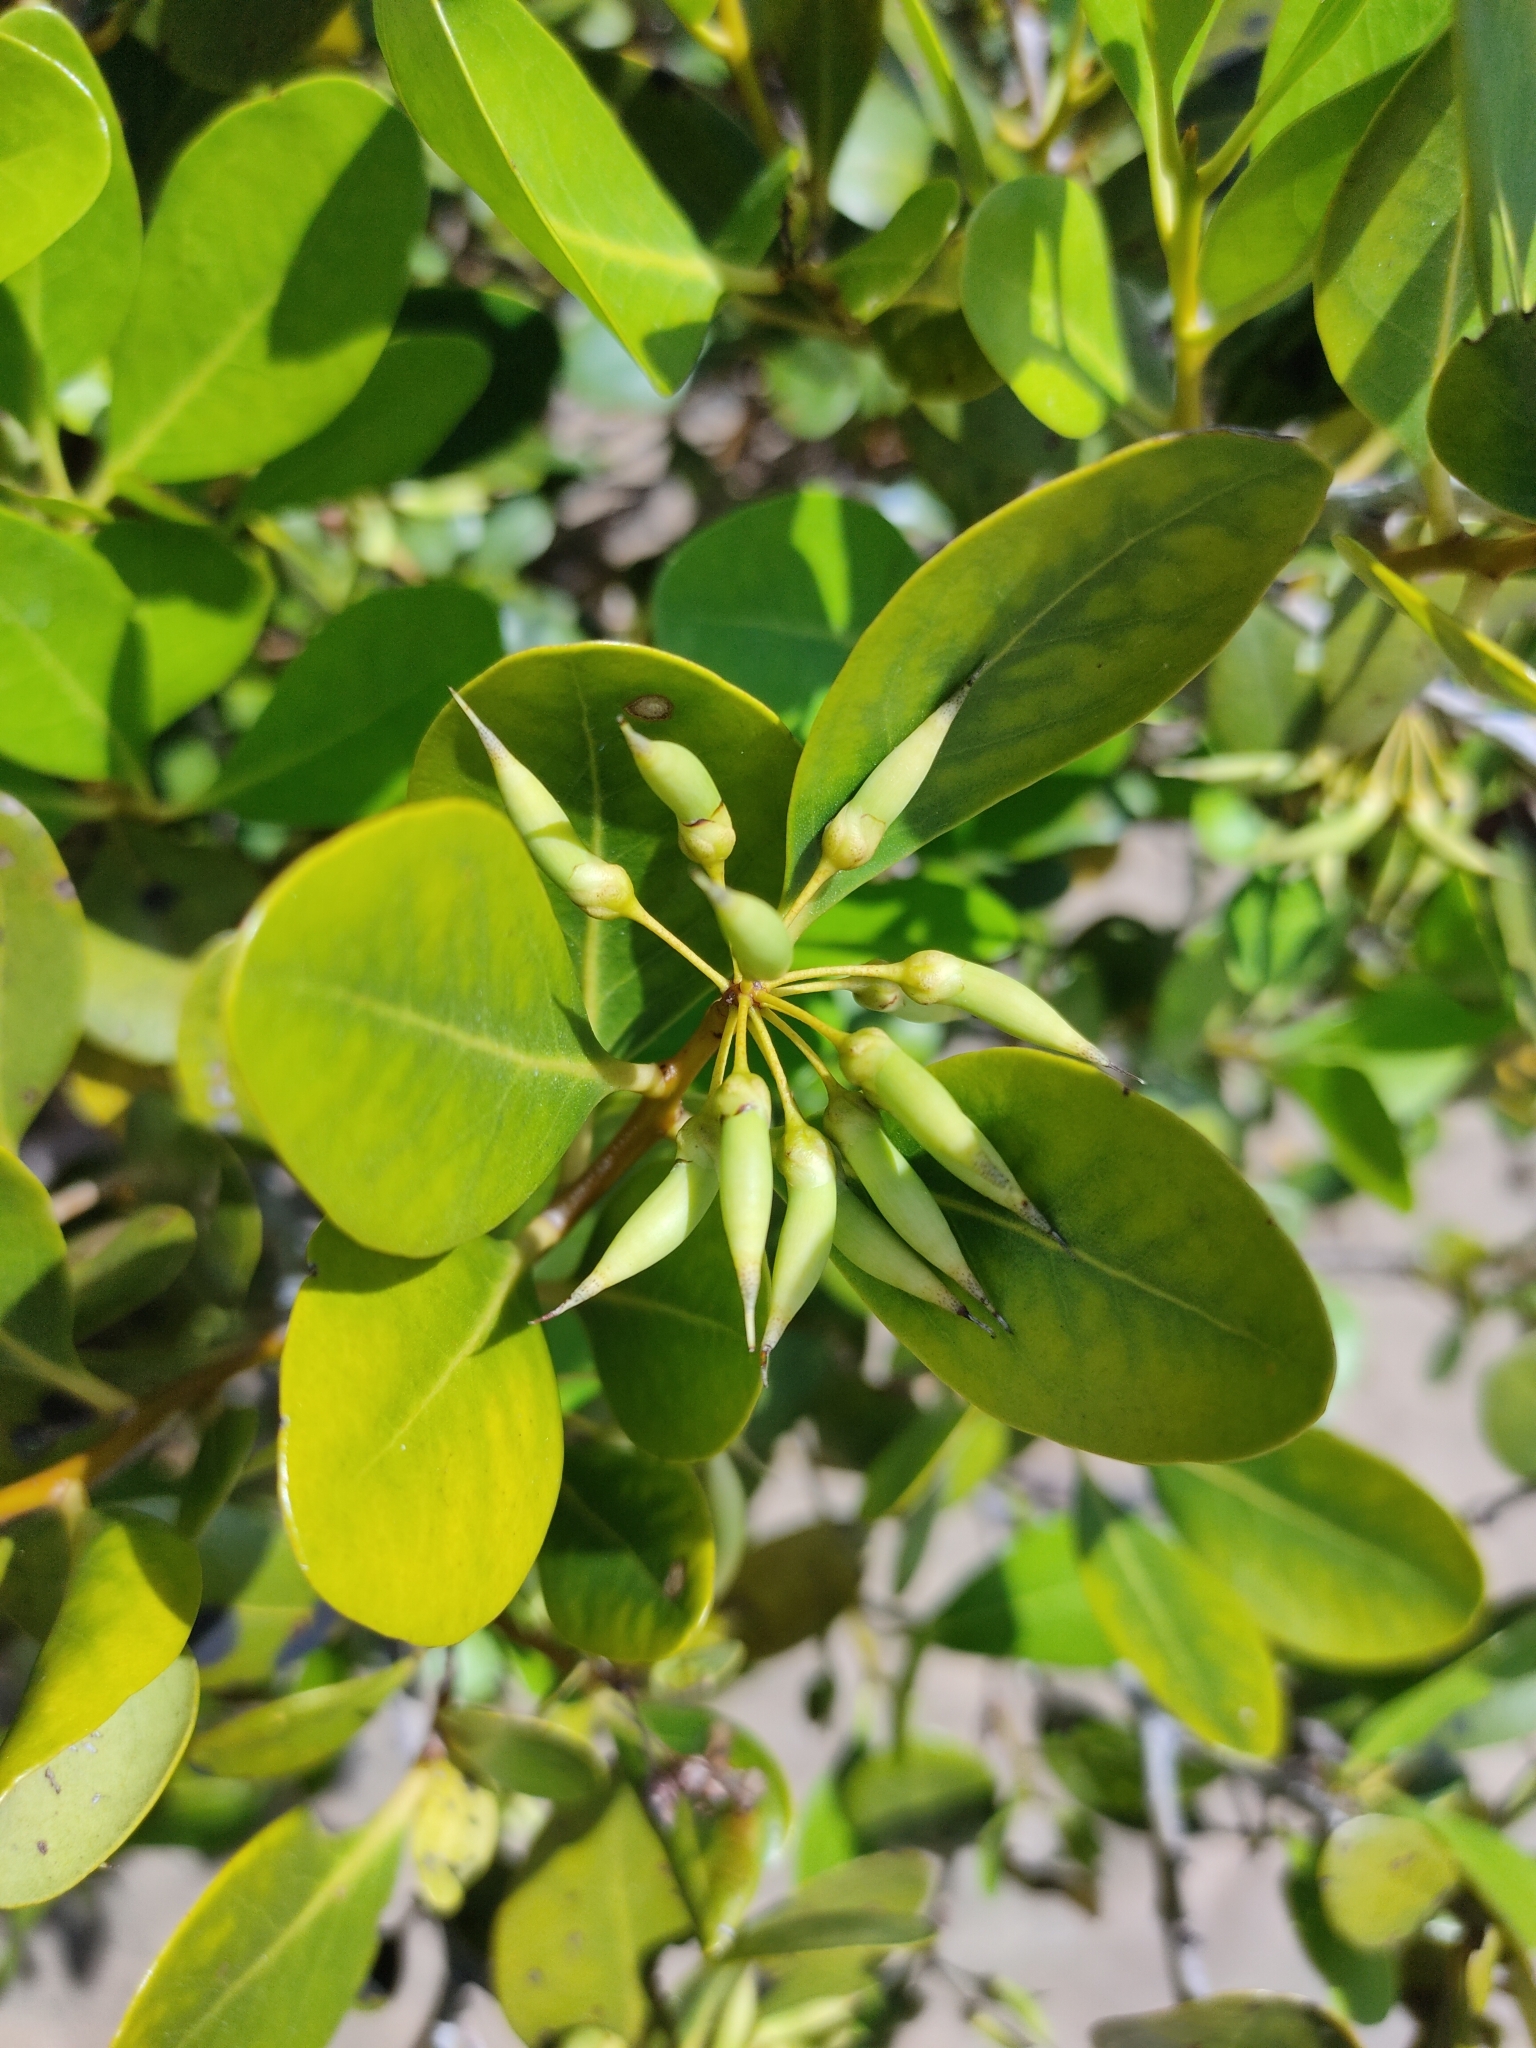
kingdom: Plantae
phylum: Tracheophyta
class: Magnoliopsida
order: Ericales
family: Primulaceae
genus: Aegiceras
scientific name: Aegiceras corniculatum
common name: River mangrove
